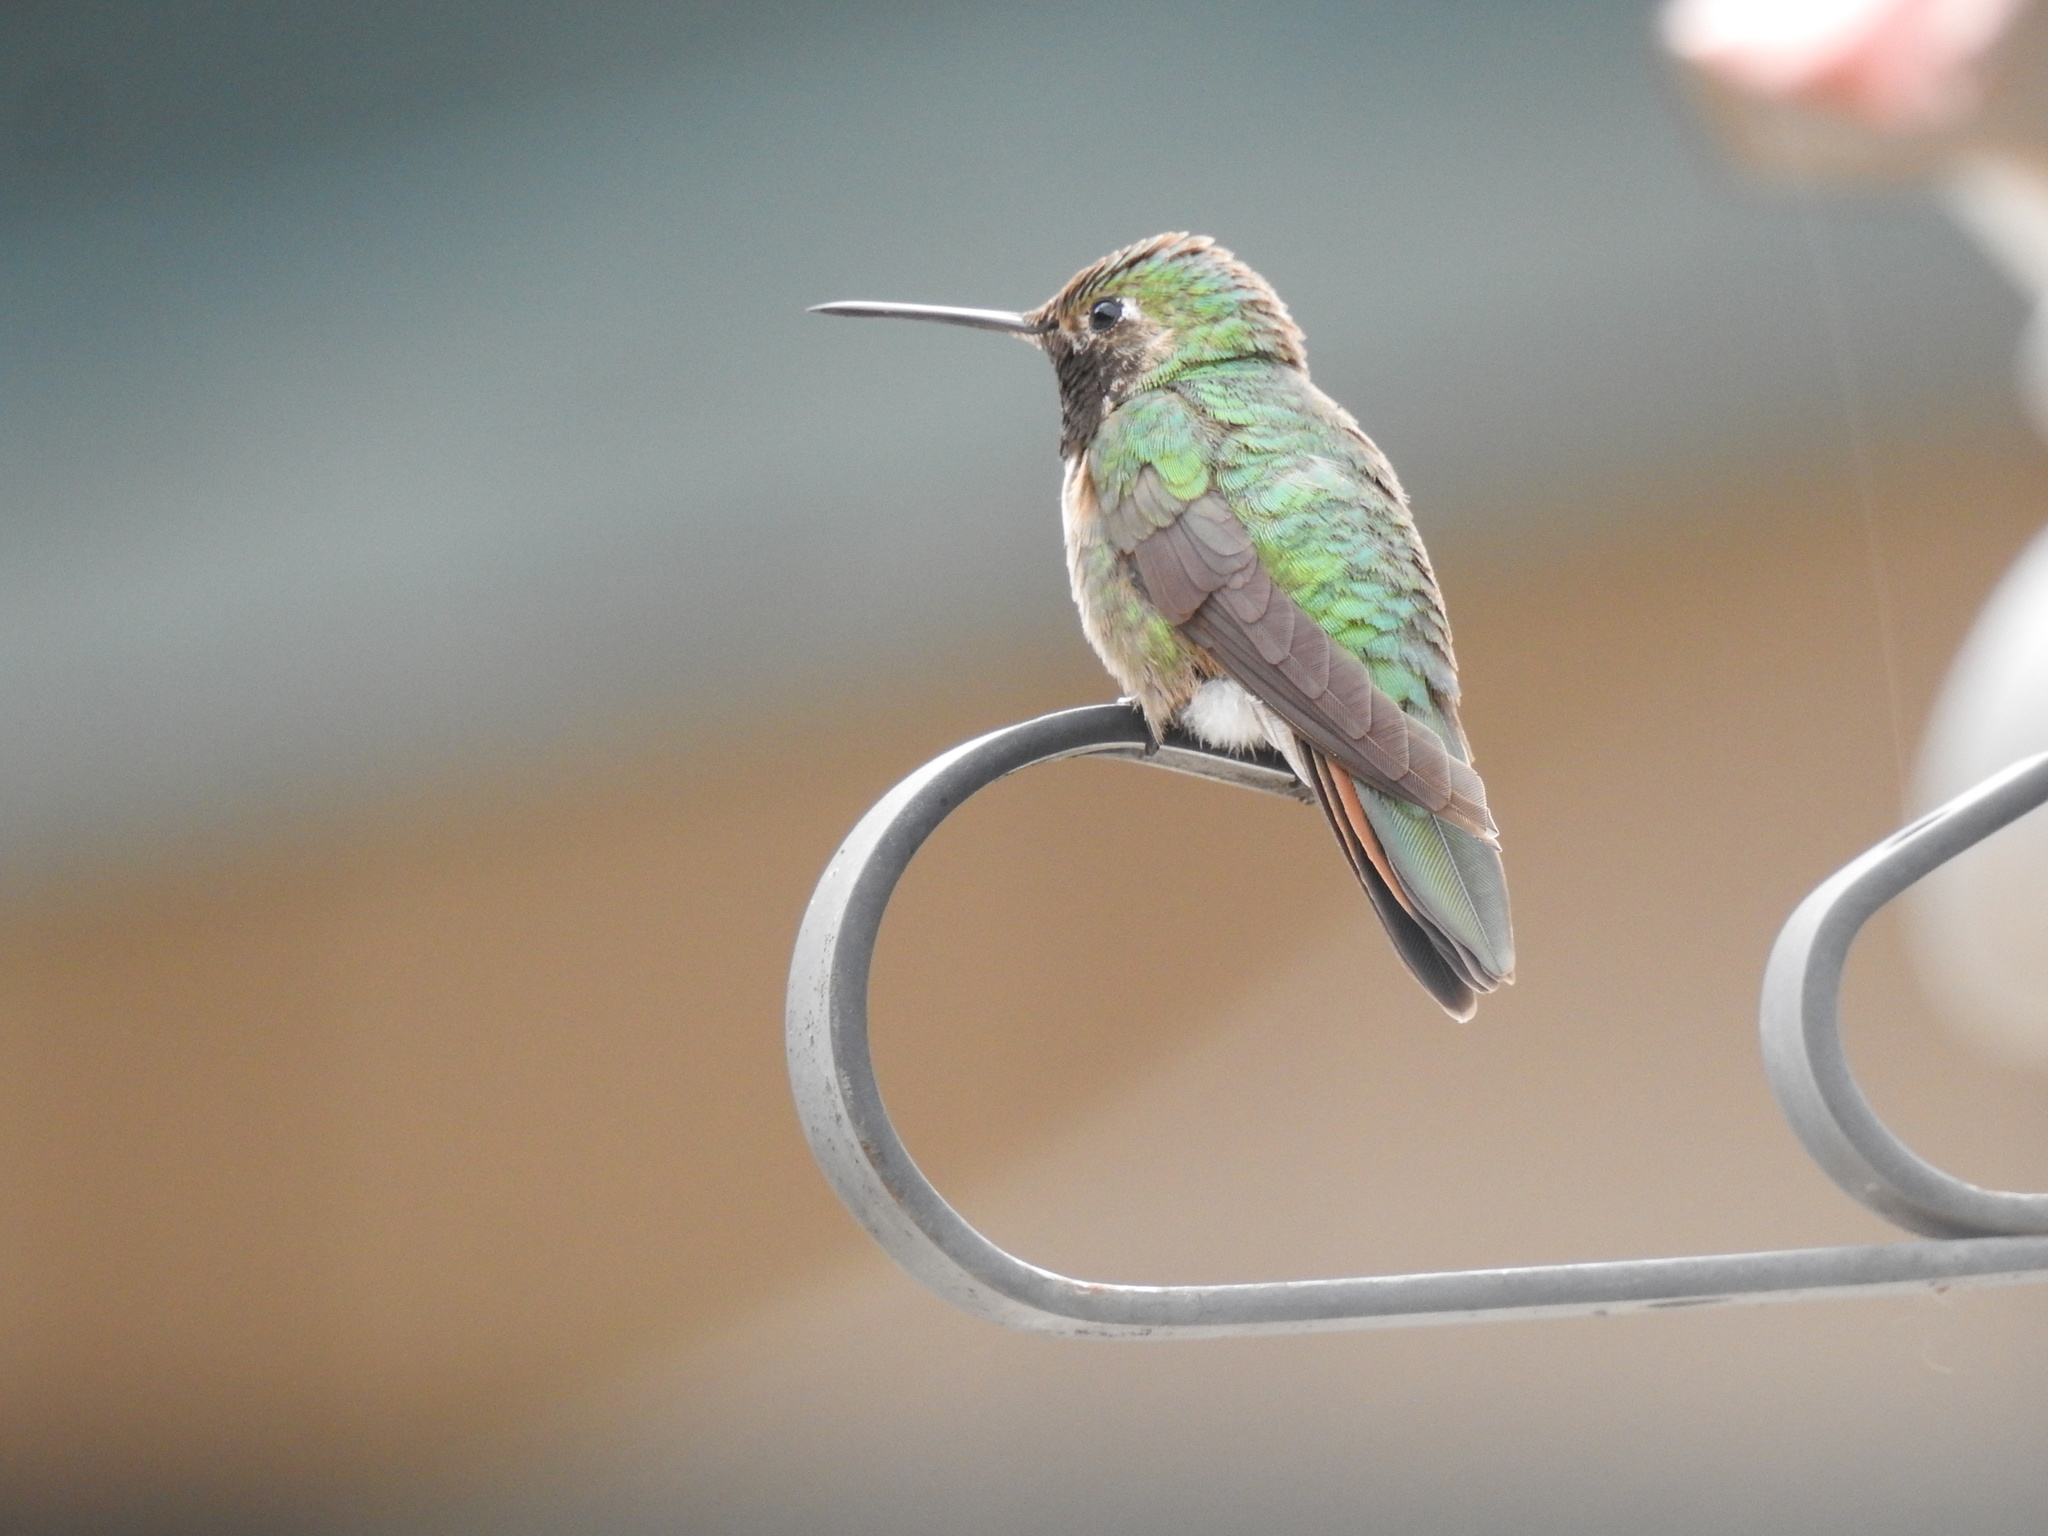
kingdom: Animalia
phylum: Chordata
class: Aves
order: Apodiformes
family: Trochilidae
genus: Selasphorus
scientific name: Selasphorus platycercus
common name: Broad-tailed hummingbird
